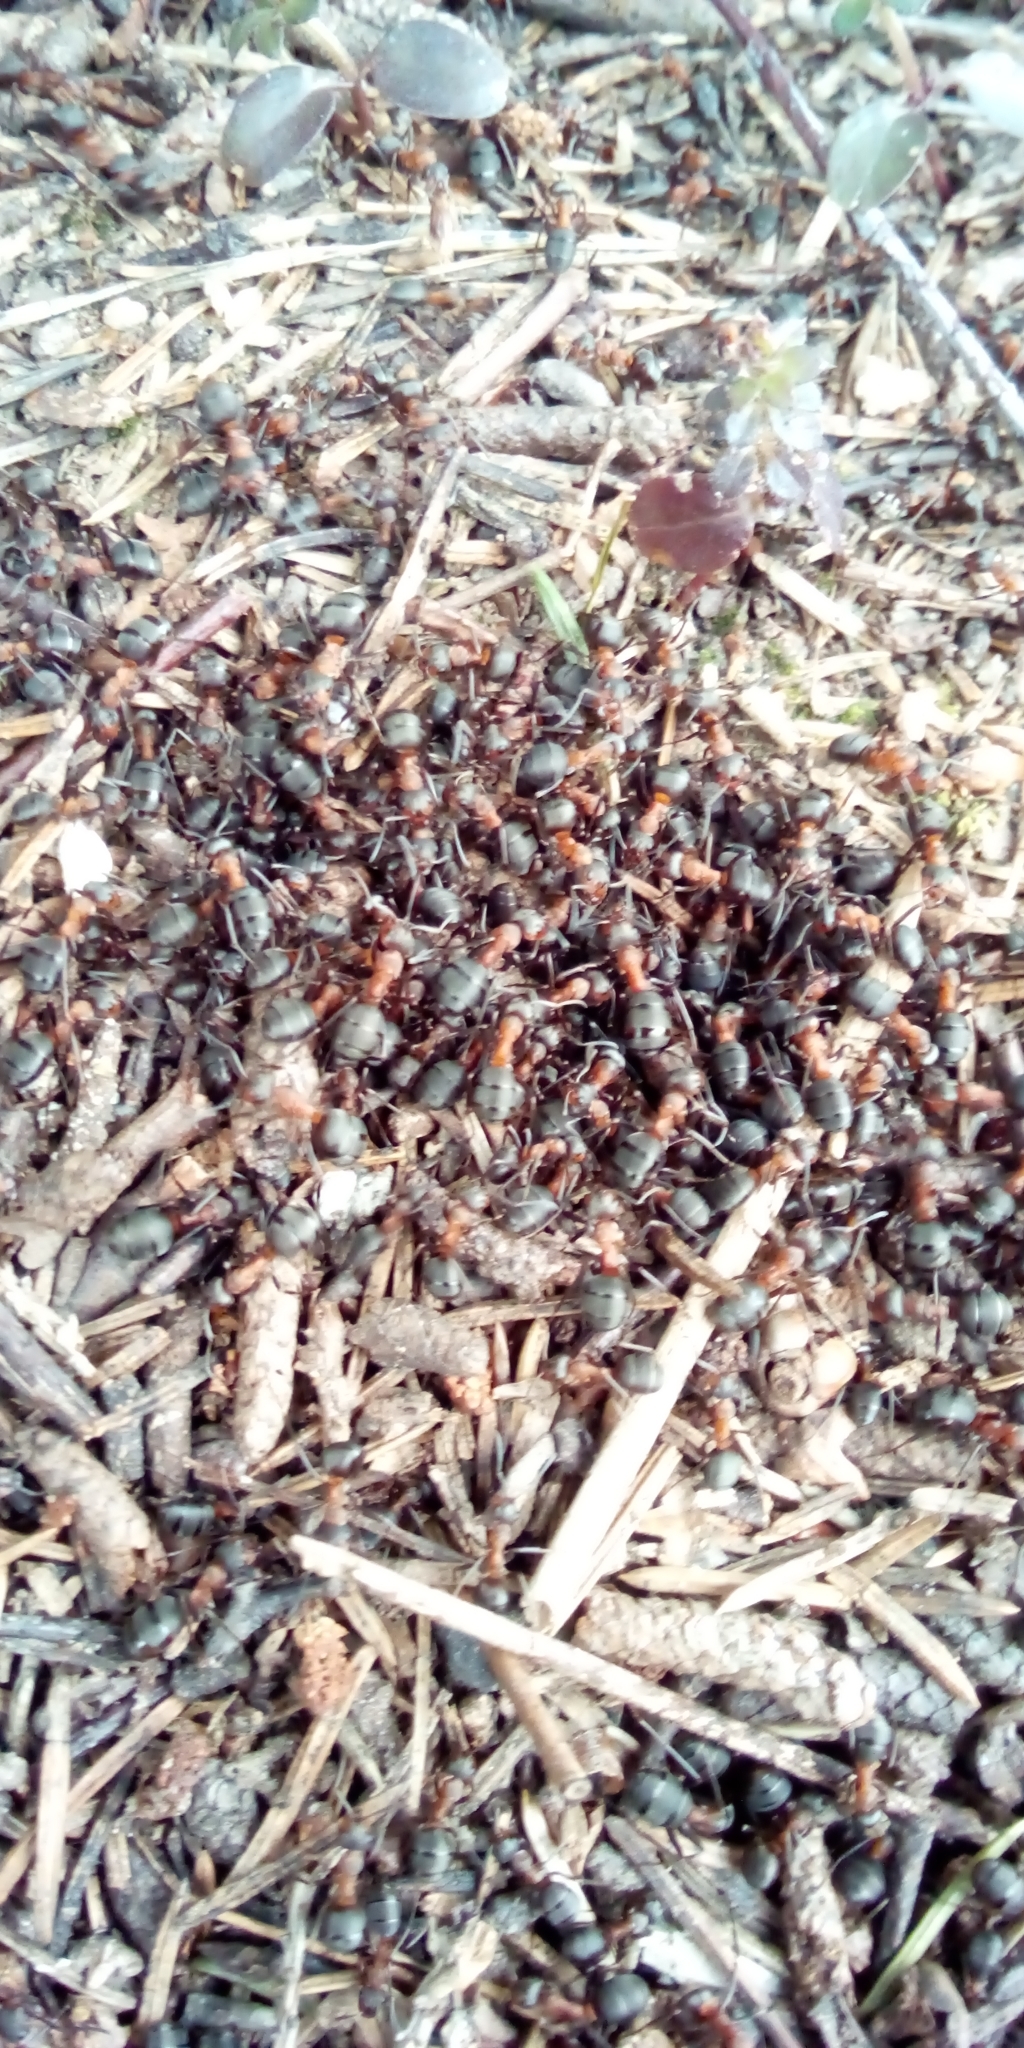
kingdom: Animalia
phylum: Arthropoda
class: Insecta
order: Hymenoptera
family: Formicidae
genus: Formica
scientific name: Formica
